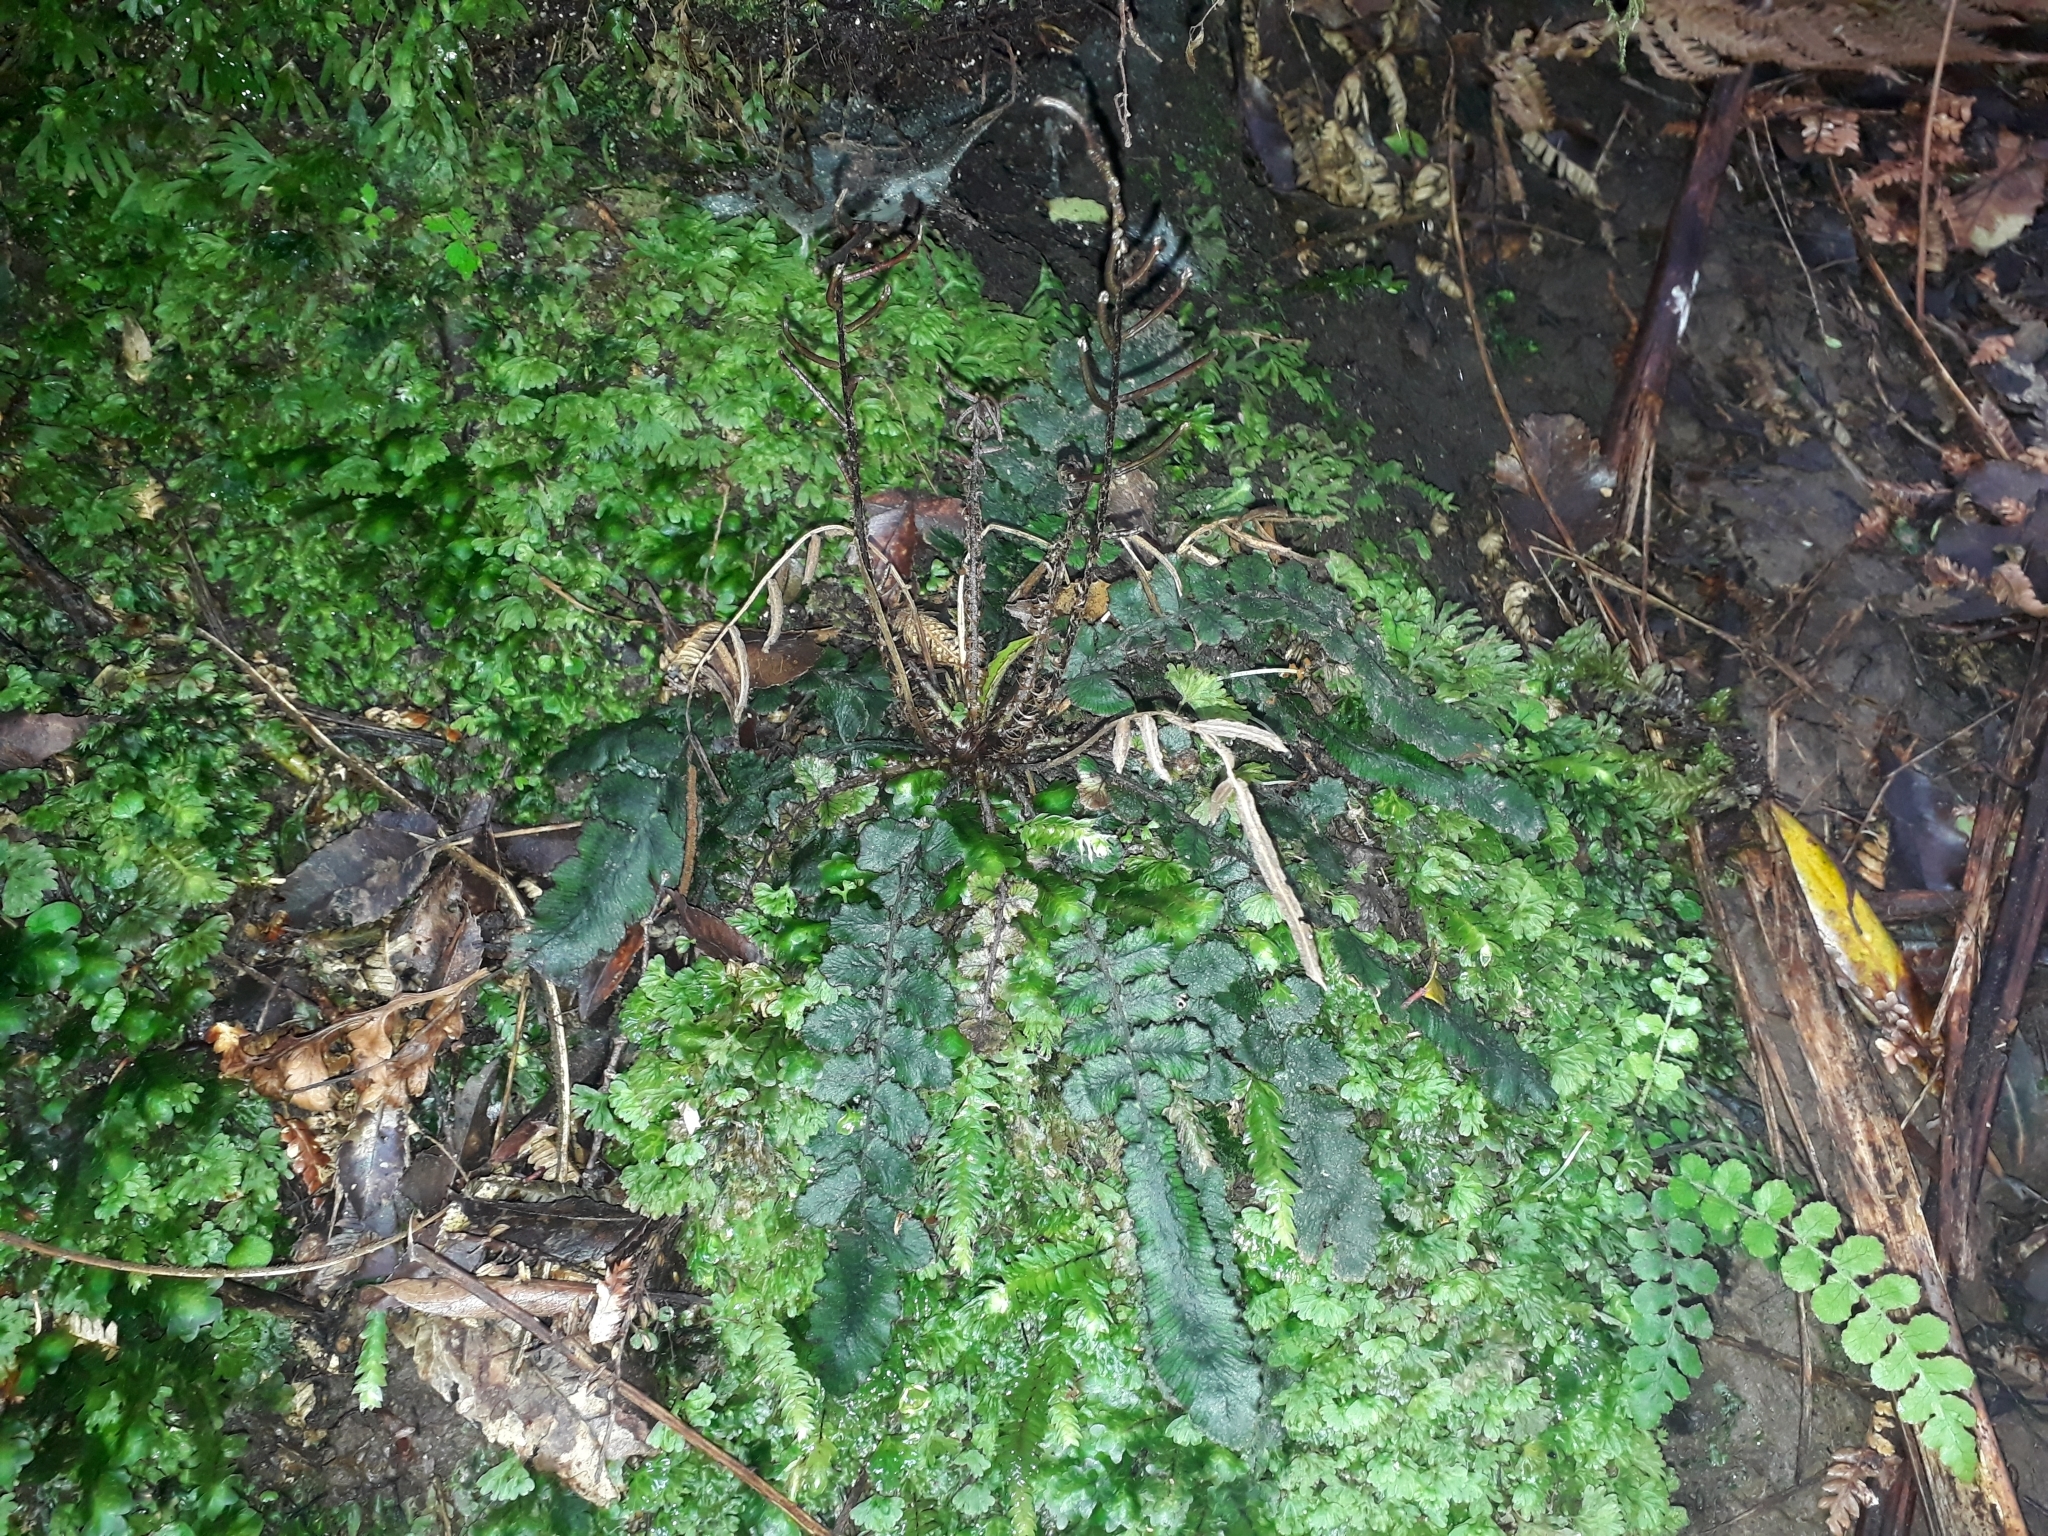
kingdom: Plantae
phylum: Tracheophyta
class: Polypodiopsida
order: Polypodiales
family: Blechnaceae
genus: Cranfillia
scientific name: Cranfillia nigra
